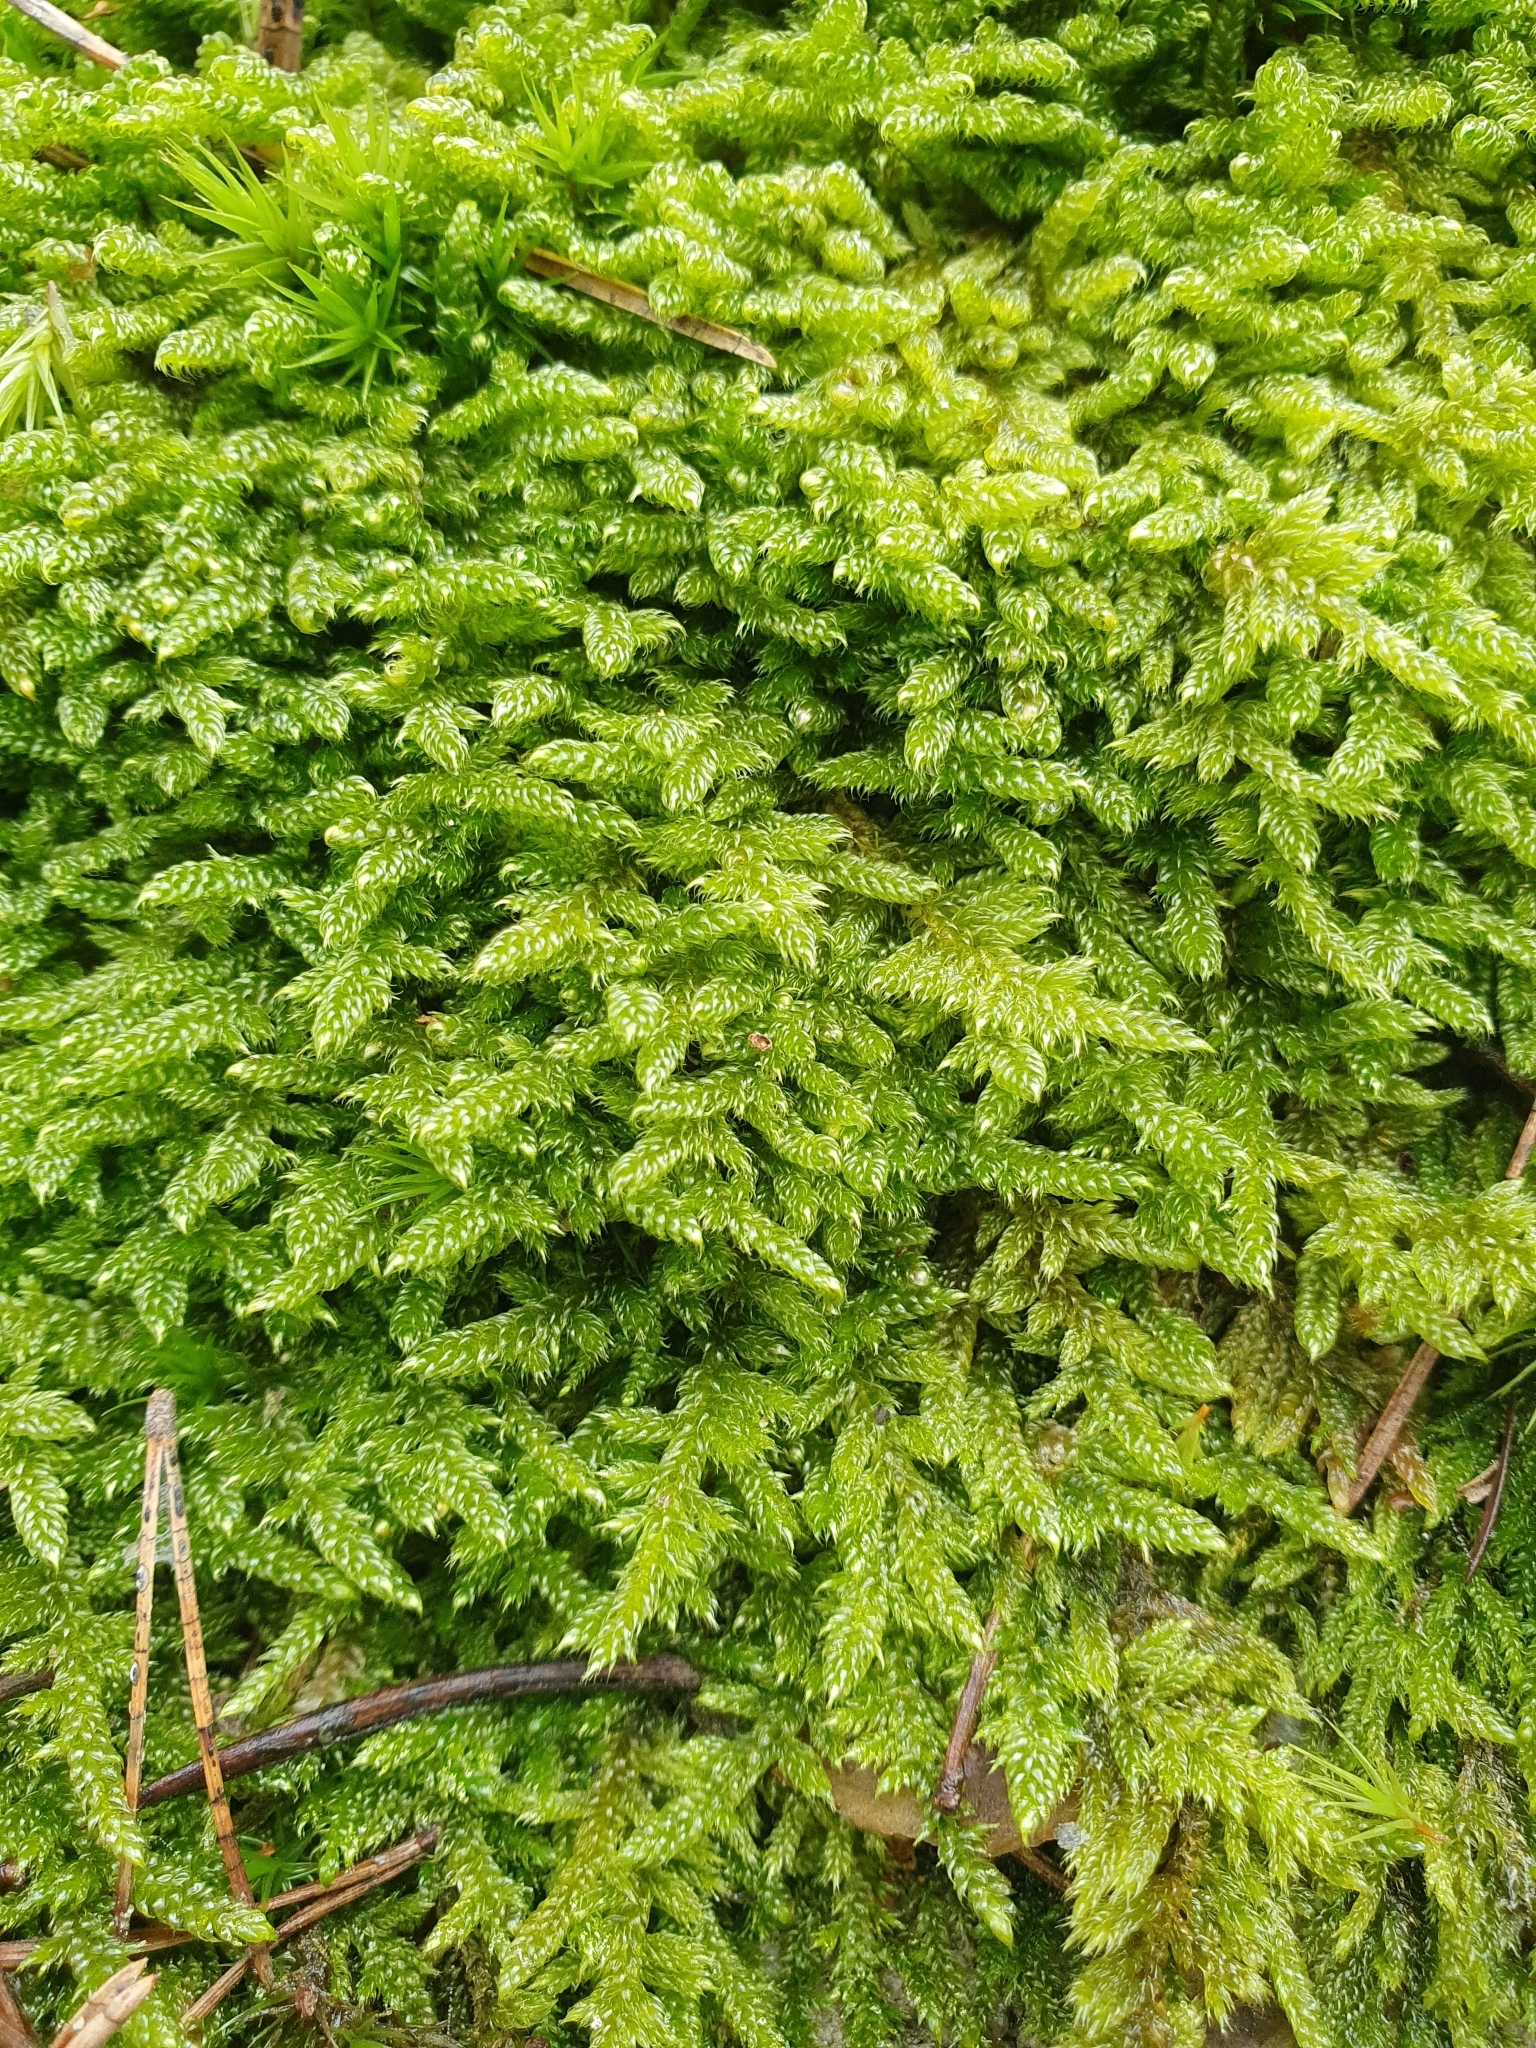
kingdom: Plantae
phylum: Bryophyta
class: Bryopsida
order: Hypnales
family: Hypnaceae
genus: Hypnum
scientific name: Hypnum cupressiforme
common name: Cypress-leaved plait-moss
